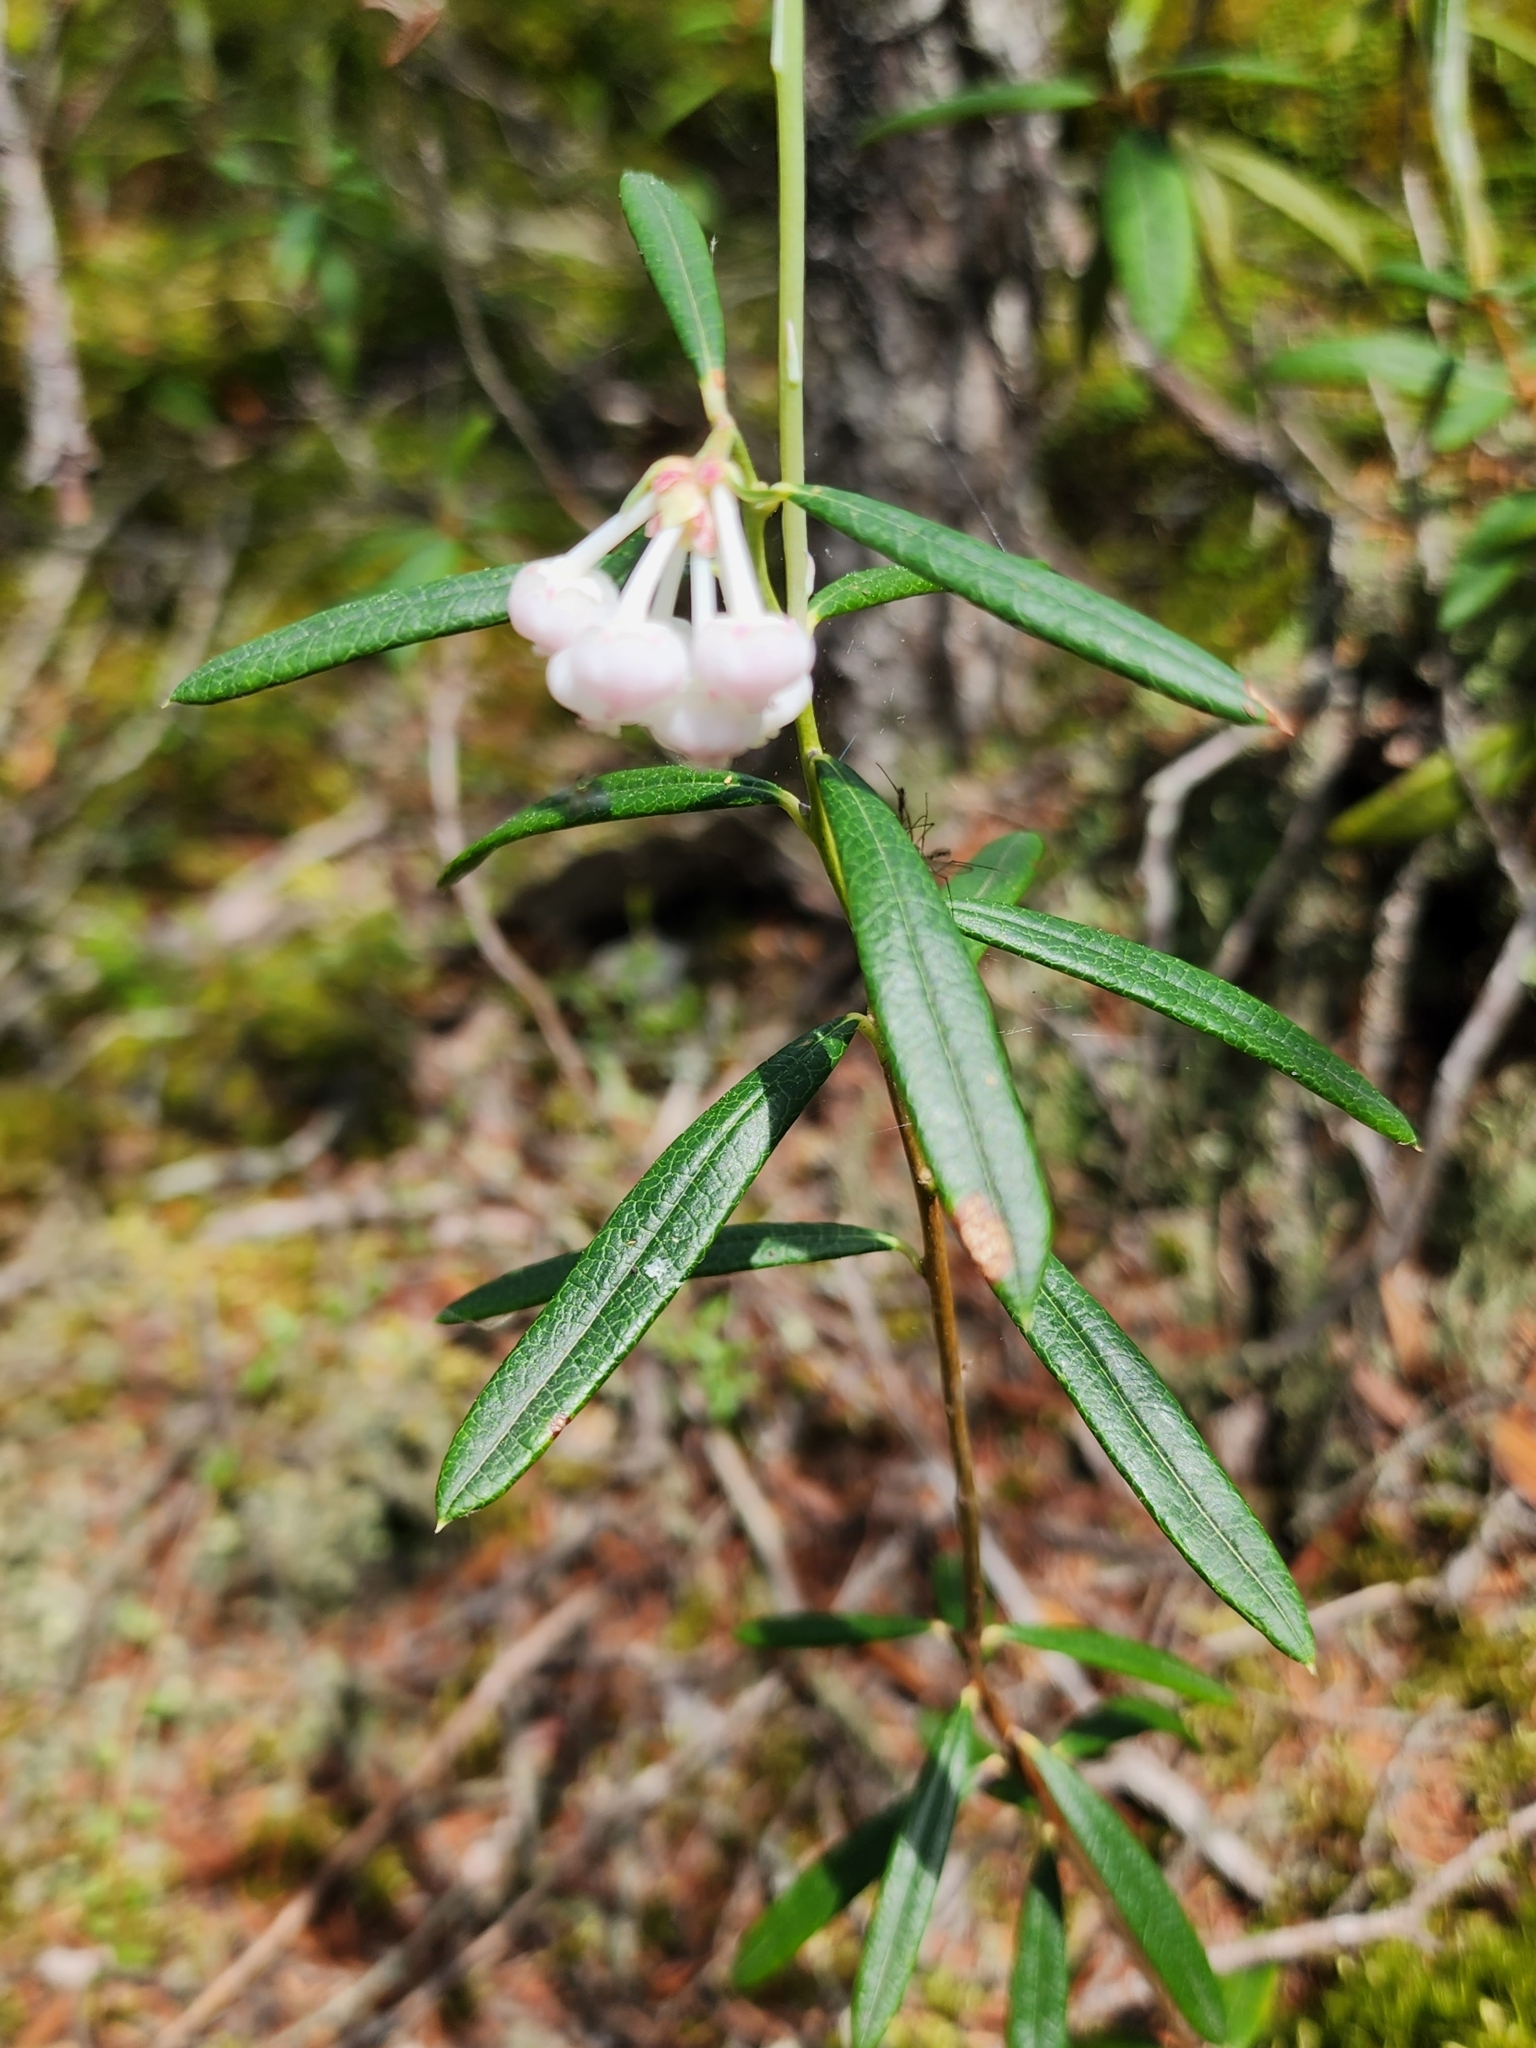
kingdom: Plantae
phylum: Tracheophyta
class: Magnoliopsida
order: Ericales
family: Ericaceae
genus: Andromeda
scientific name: Andromeda polifolia
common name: Bog-rosemary
